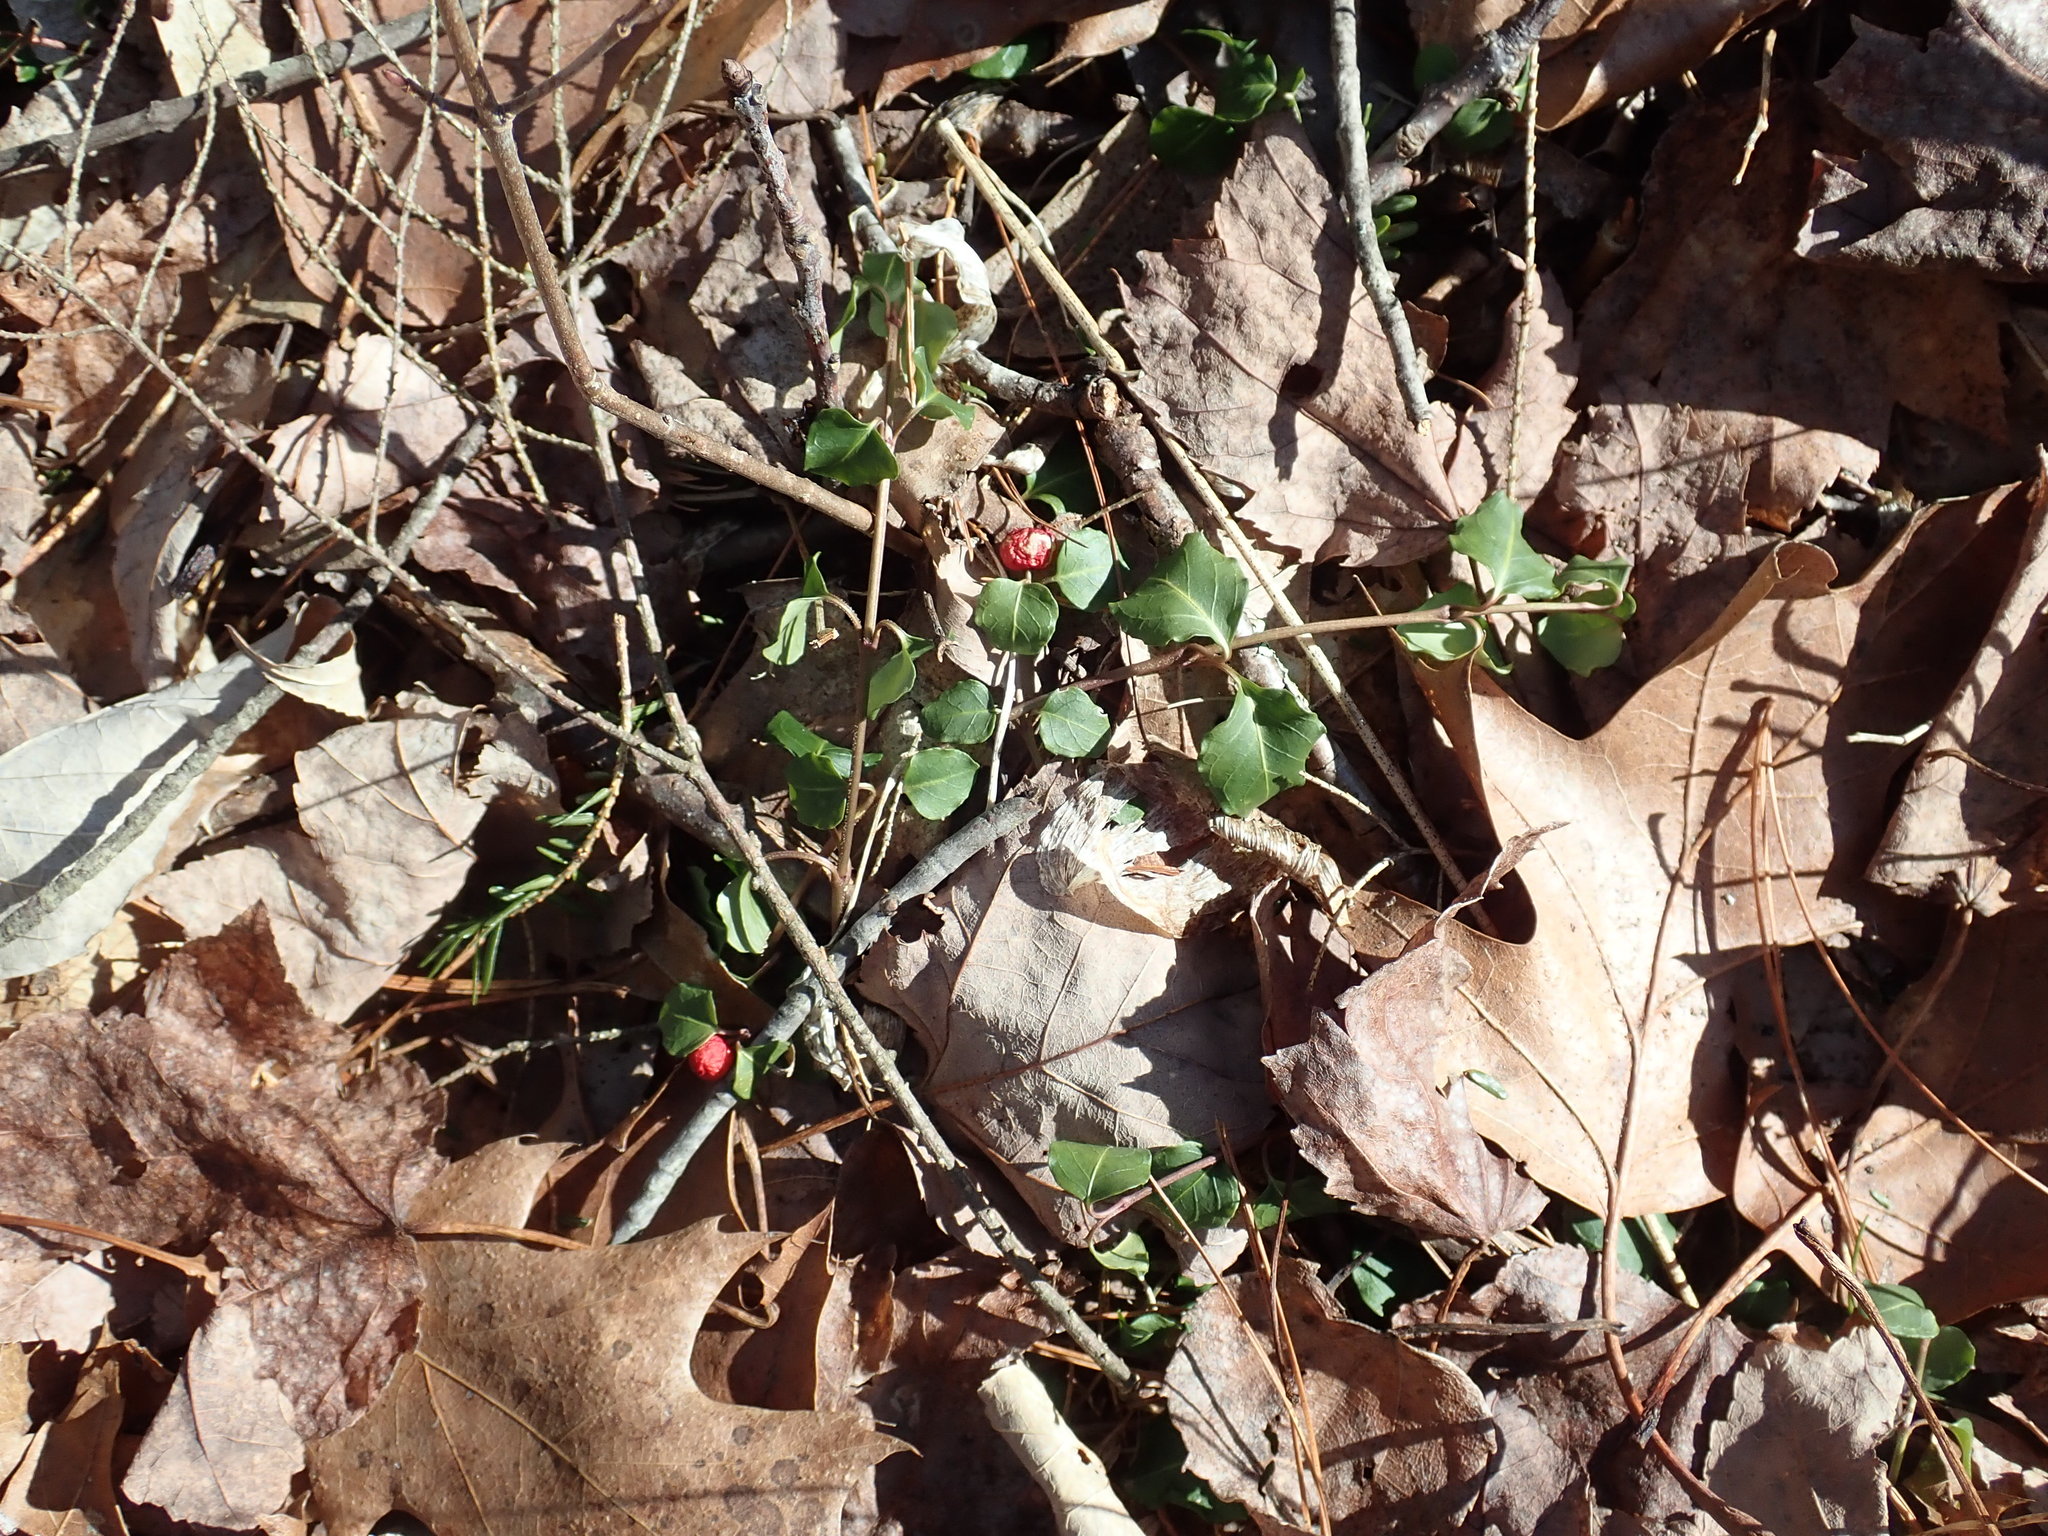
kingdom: Plantae
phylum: Tracheophyta
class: Magnoliopsida
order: Gentianales
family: Rubiaceae
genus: Mitchella
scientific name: Mitchella repens
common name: Partridge-berry
